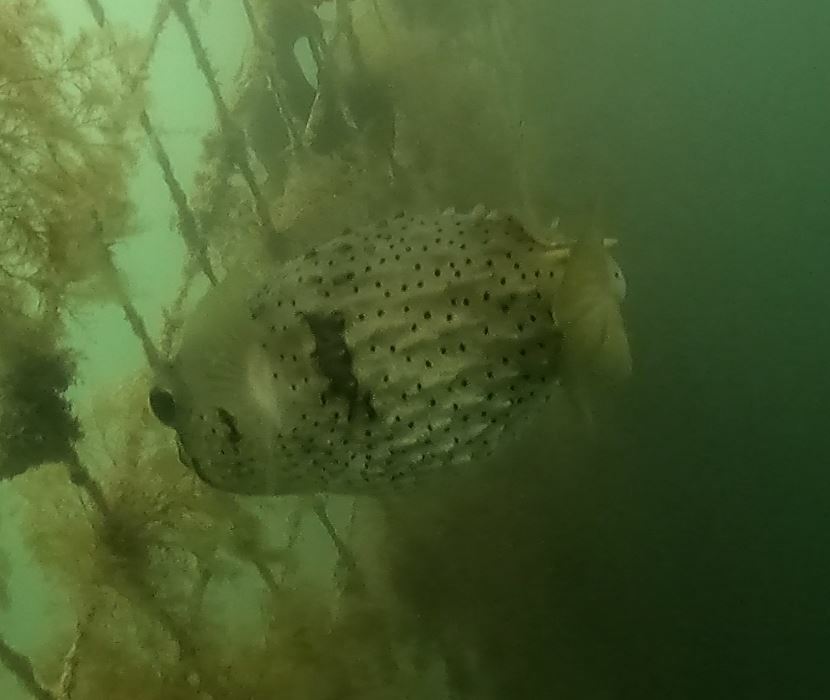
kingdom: Animalia
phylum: Chordata
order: Tetraodontiformes
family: Diodontidae
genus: Dicotylichthys
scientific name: Dicotylichthys punctulatus
